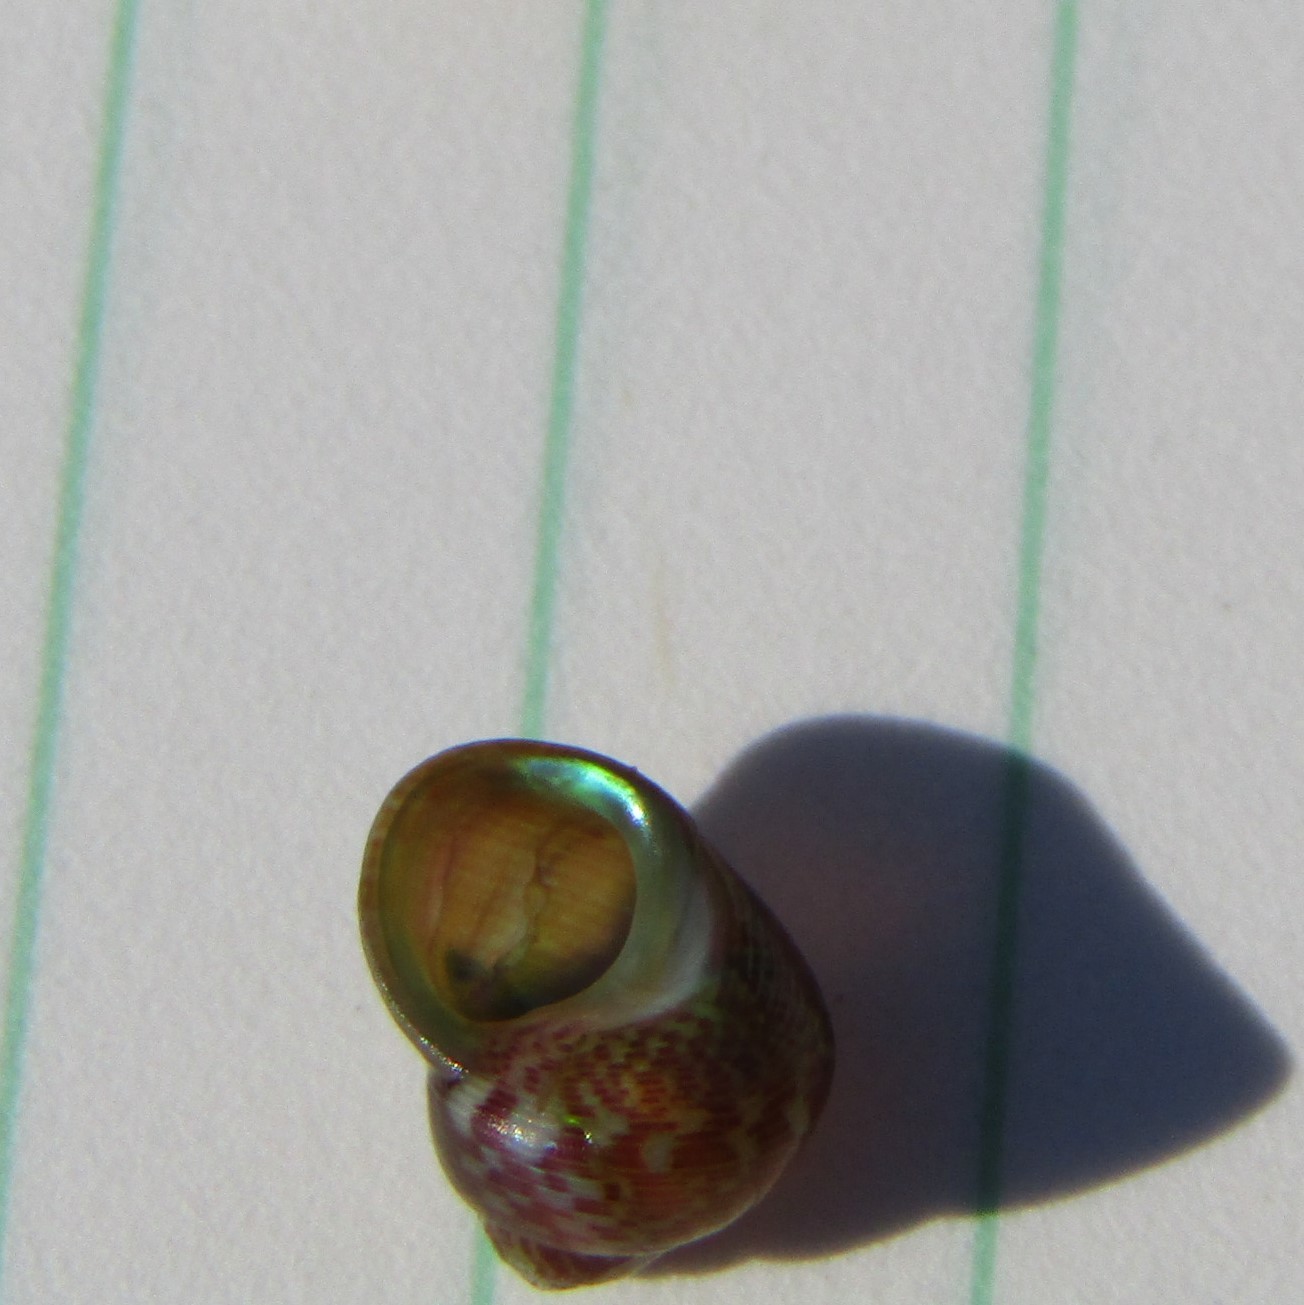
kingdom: Animalia
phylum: Mollusca
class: Gastropoda
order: Trochida
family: Trochidae
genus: Cantharidus
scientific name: Cantharidus dilatatus
